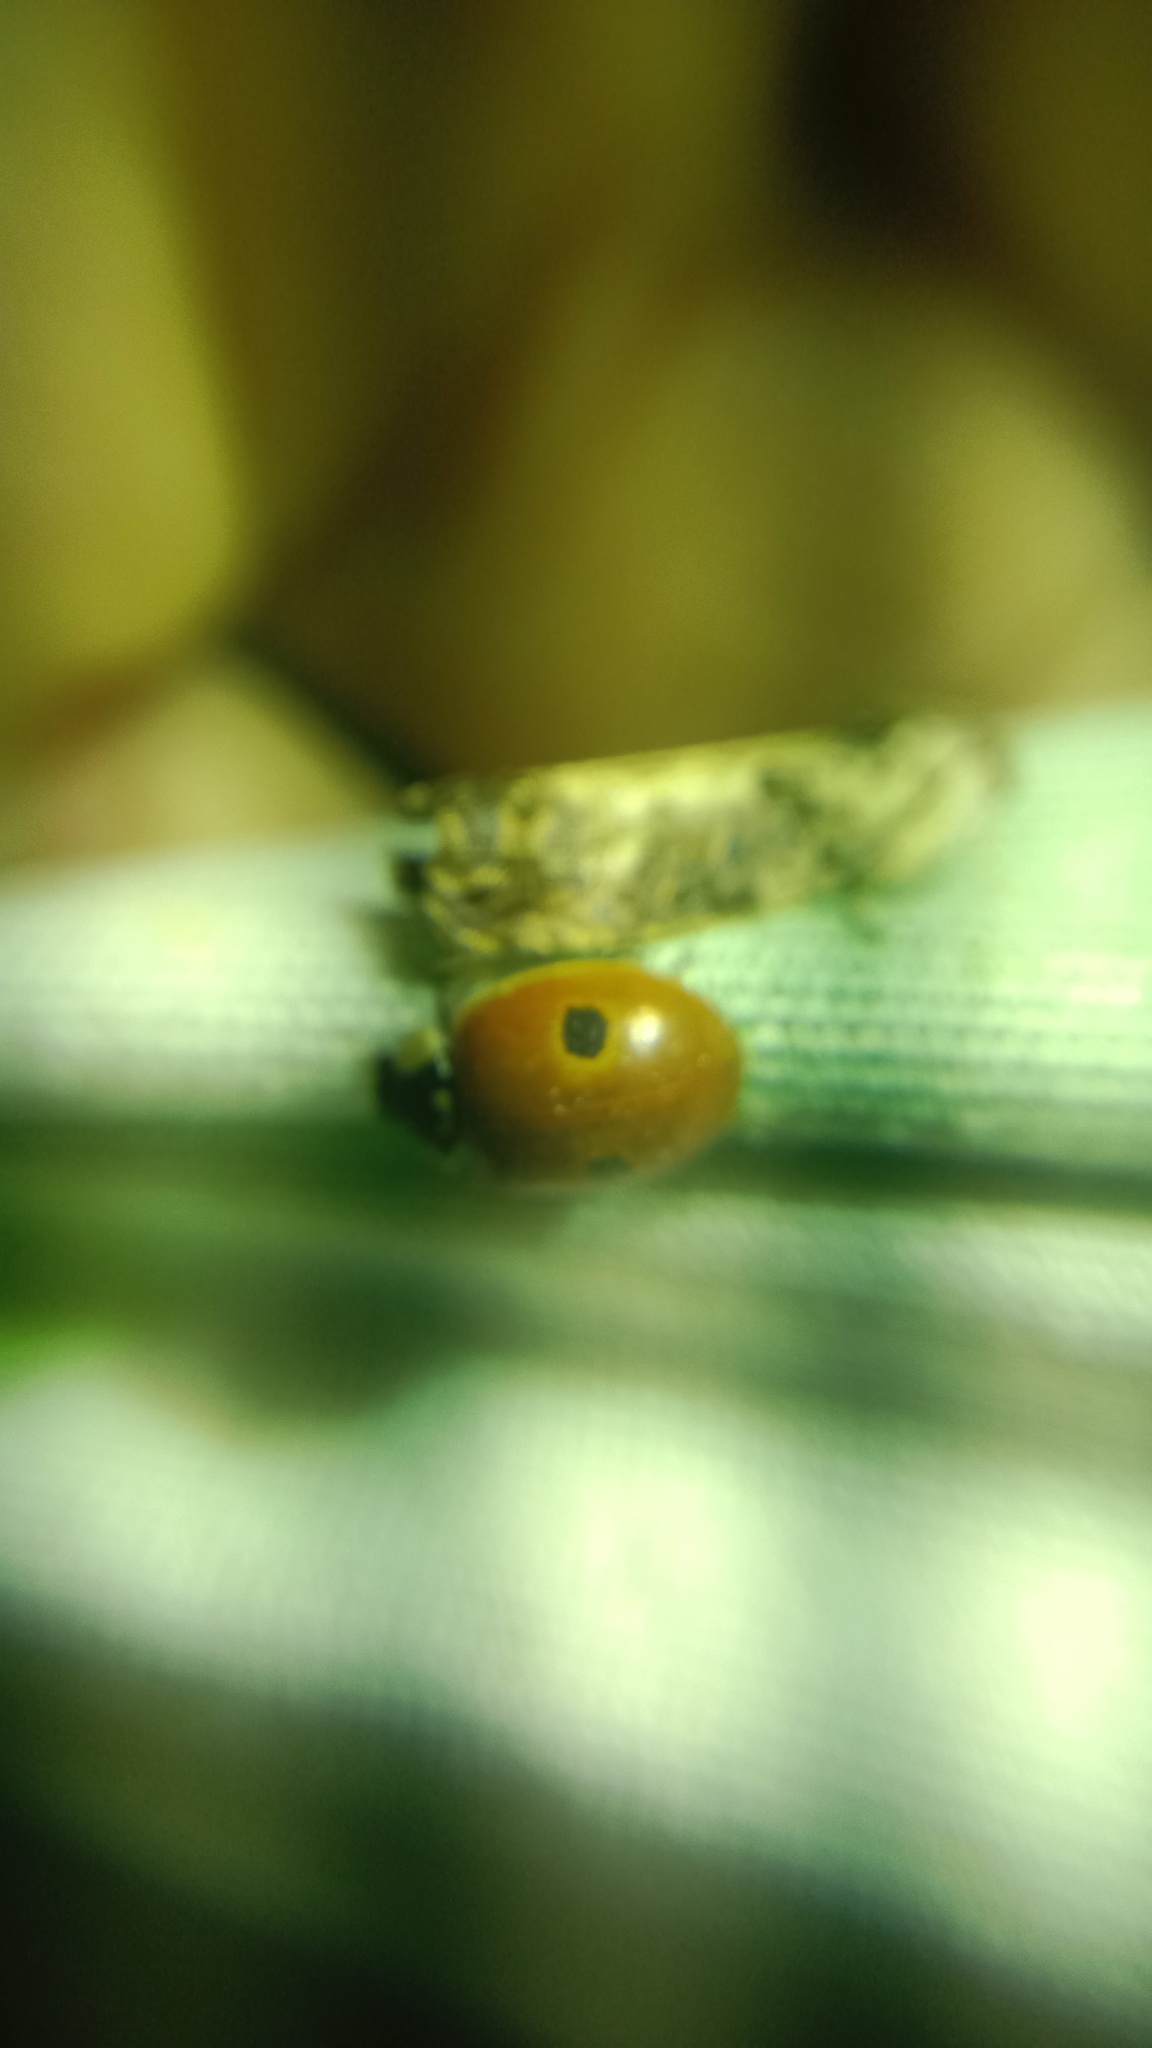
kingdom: Animalia
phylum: Arthropoda
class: Insecta
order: Coleoptera
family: Coccinellidae
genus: Adalia
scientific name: Adalia bipunctata
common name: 2-spot ladybird
